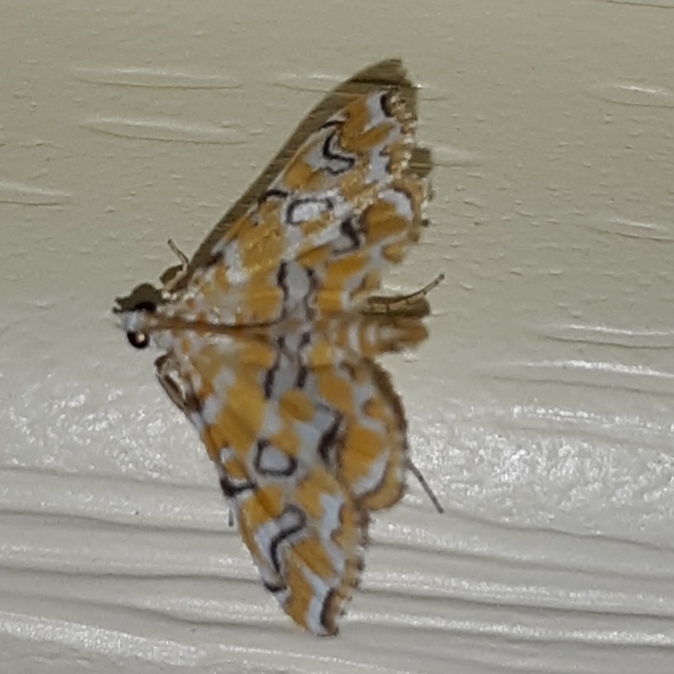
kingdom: Animalia
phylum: Arthropoda
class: Insecta
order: Lepidoptera
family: Crambidae
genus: Elophila
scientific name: Elophila icciusalis
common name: Pondside pyralid moth
